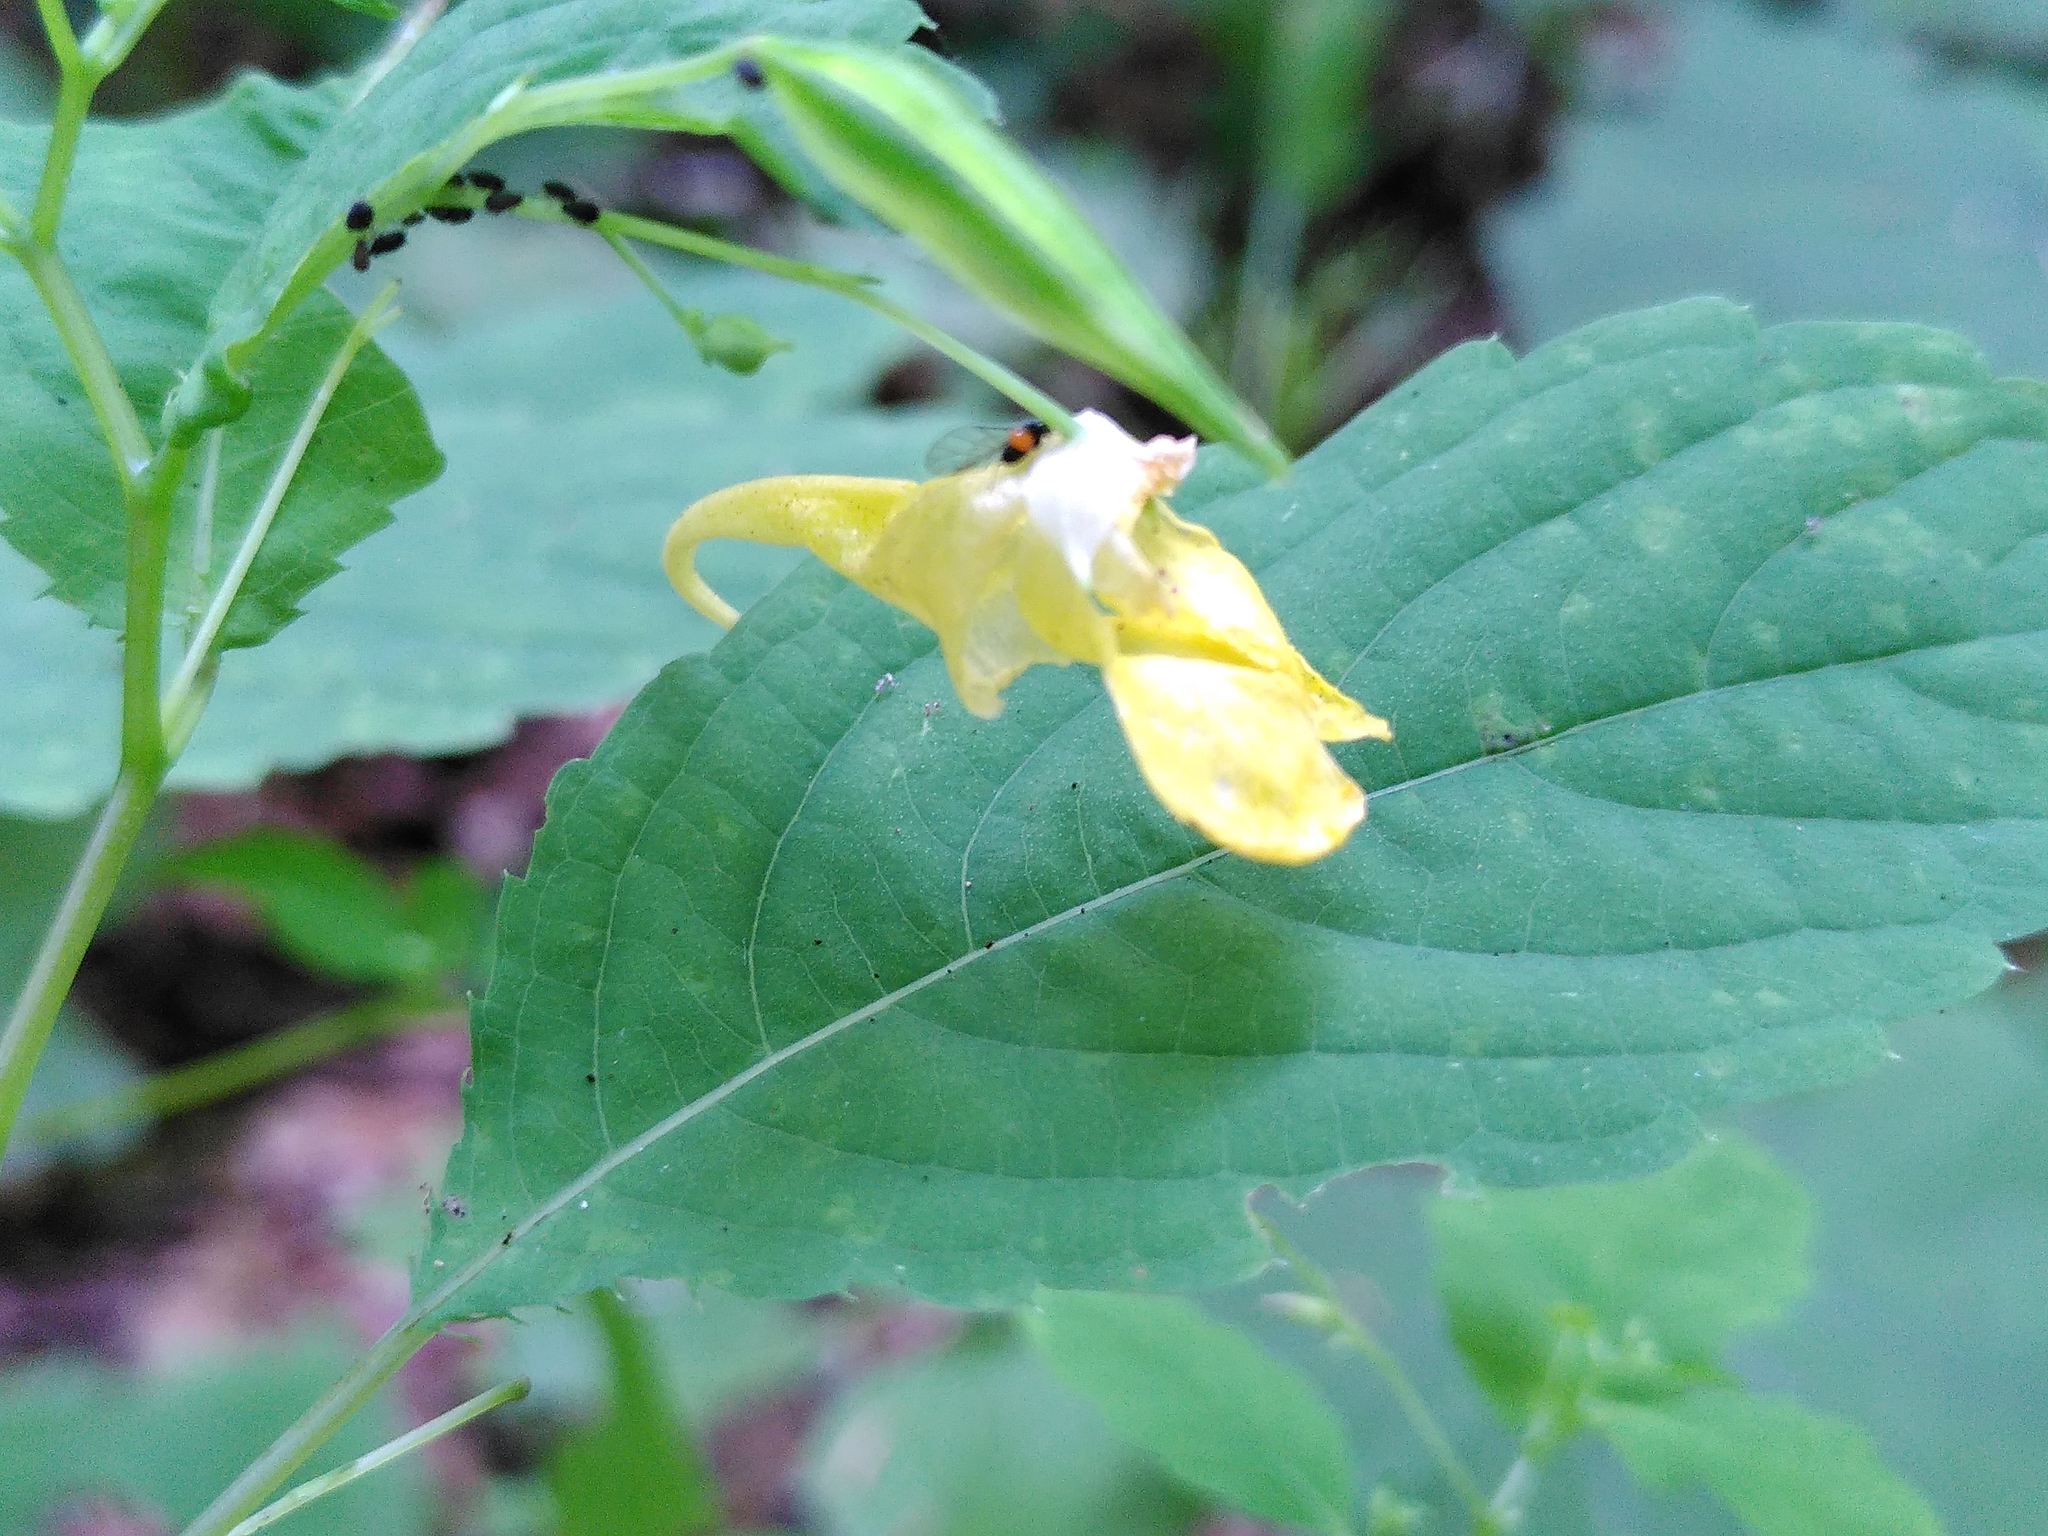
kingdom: Plantae
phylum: Tracheophyta
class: Magnoliopsida
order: Ericales
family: Balsaminaceae
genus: Impatiens
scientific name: Impatiens noli-tangere
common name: Touch-me-not balsam
